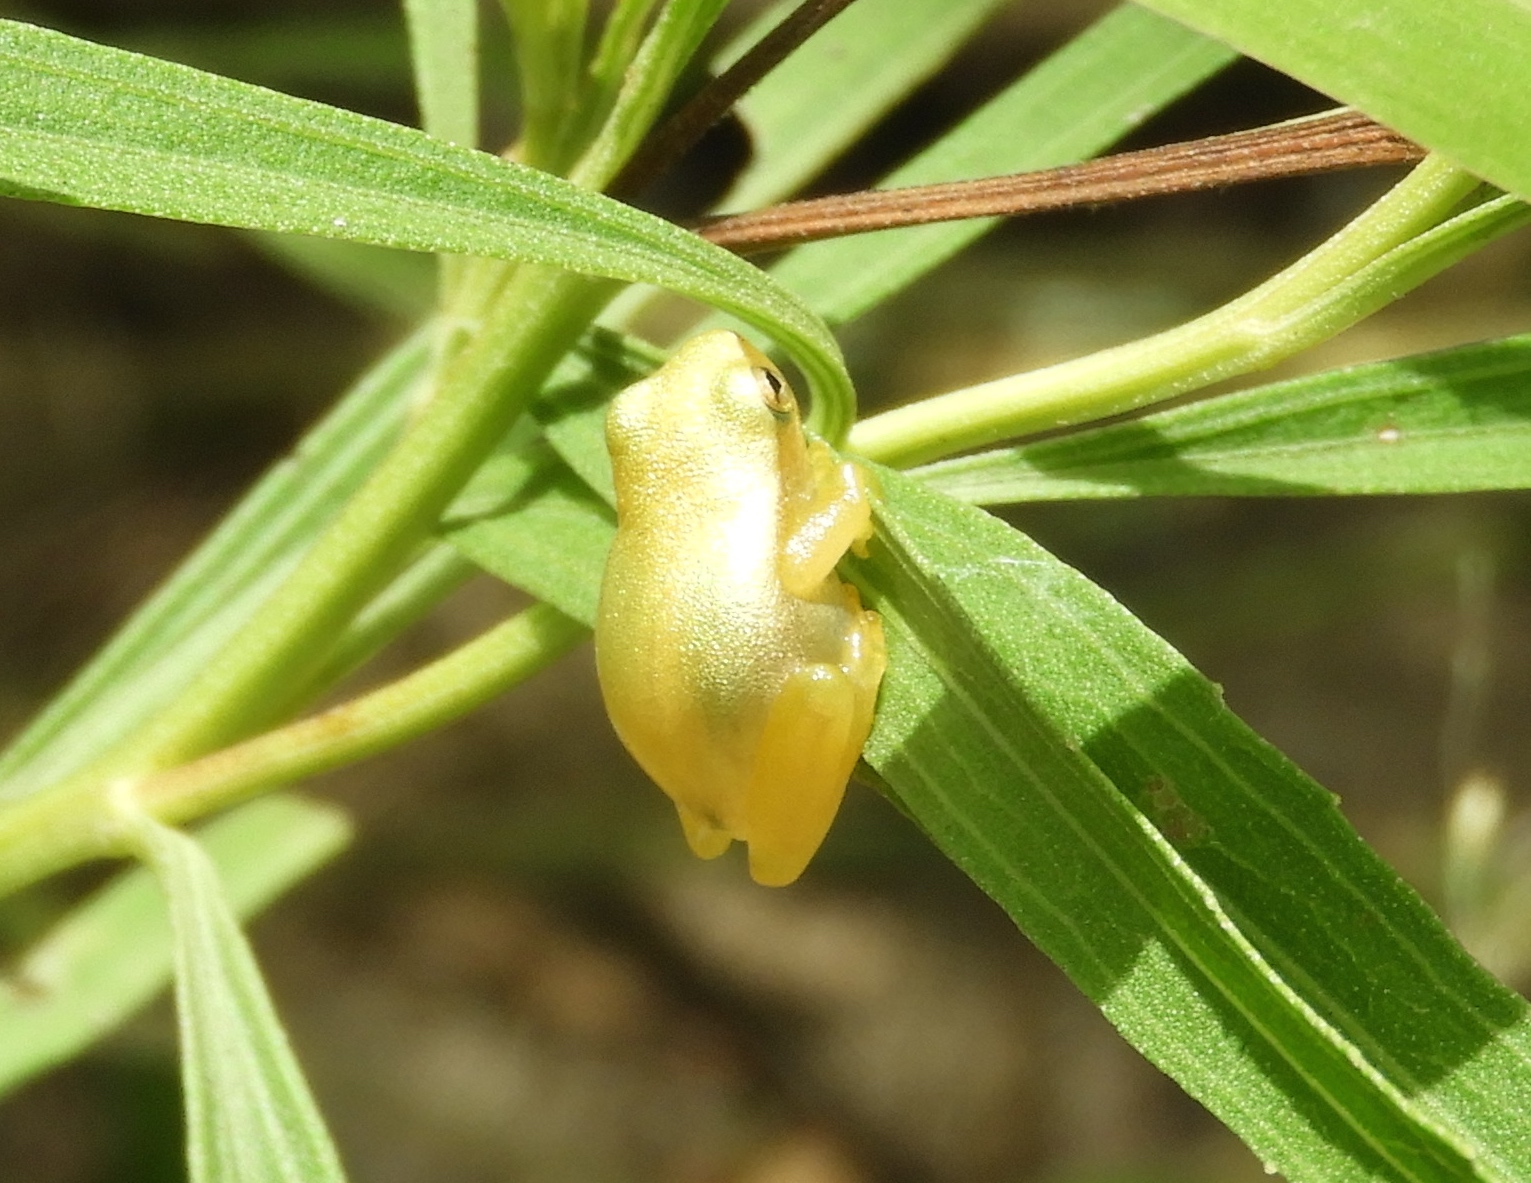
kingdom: Animalia
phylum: Chordata
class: Amphibia
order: Anura
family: Hylidae
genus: Tlalocohyla
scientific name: Tlalocohyla smithii
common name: Dwarf mexican treefrog
